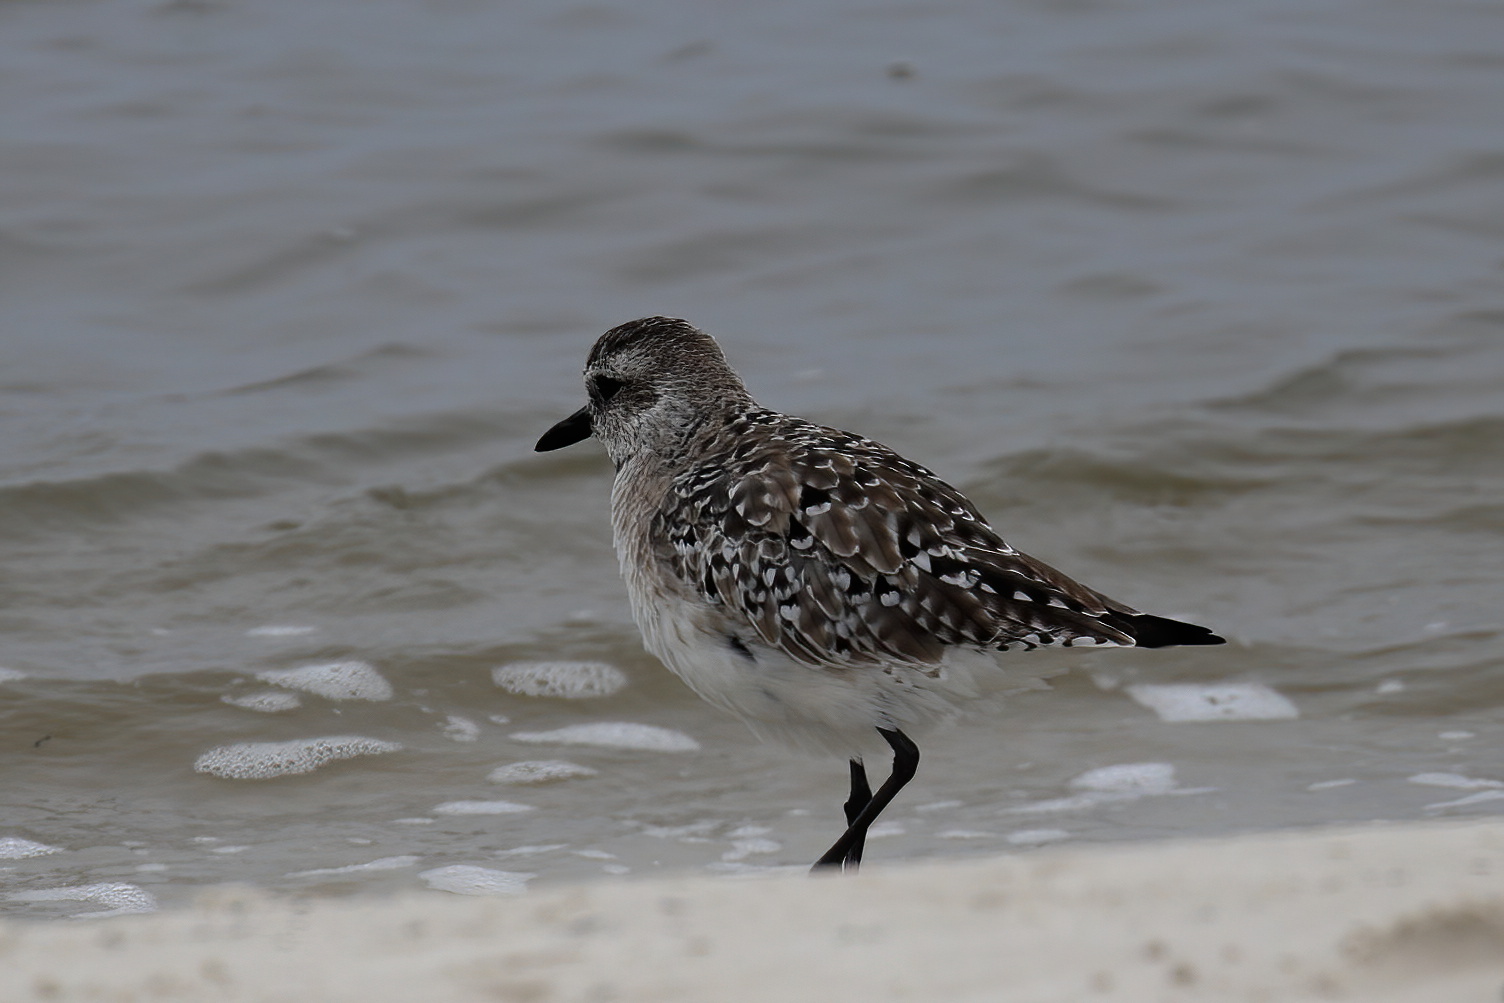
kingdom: Animalia
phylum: Chordata
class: Aves
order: Charadriiformes
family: Charadriidae
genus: Pluvialis
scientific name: Pluvialis squatarola
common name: Grey plover
